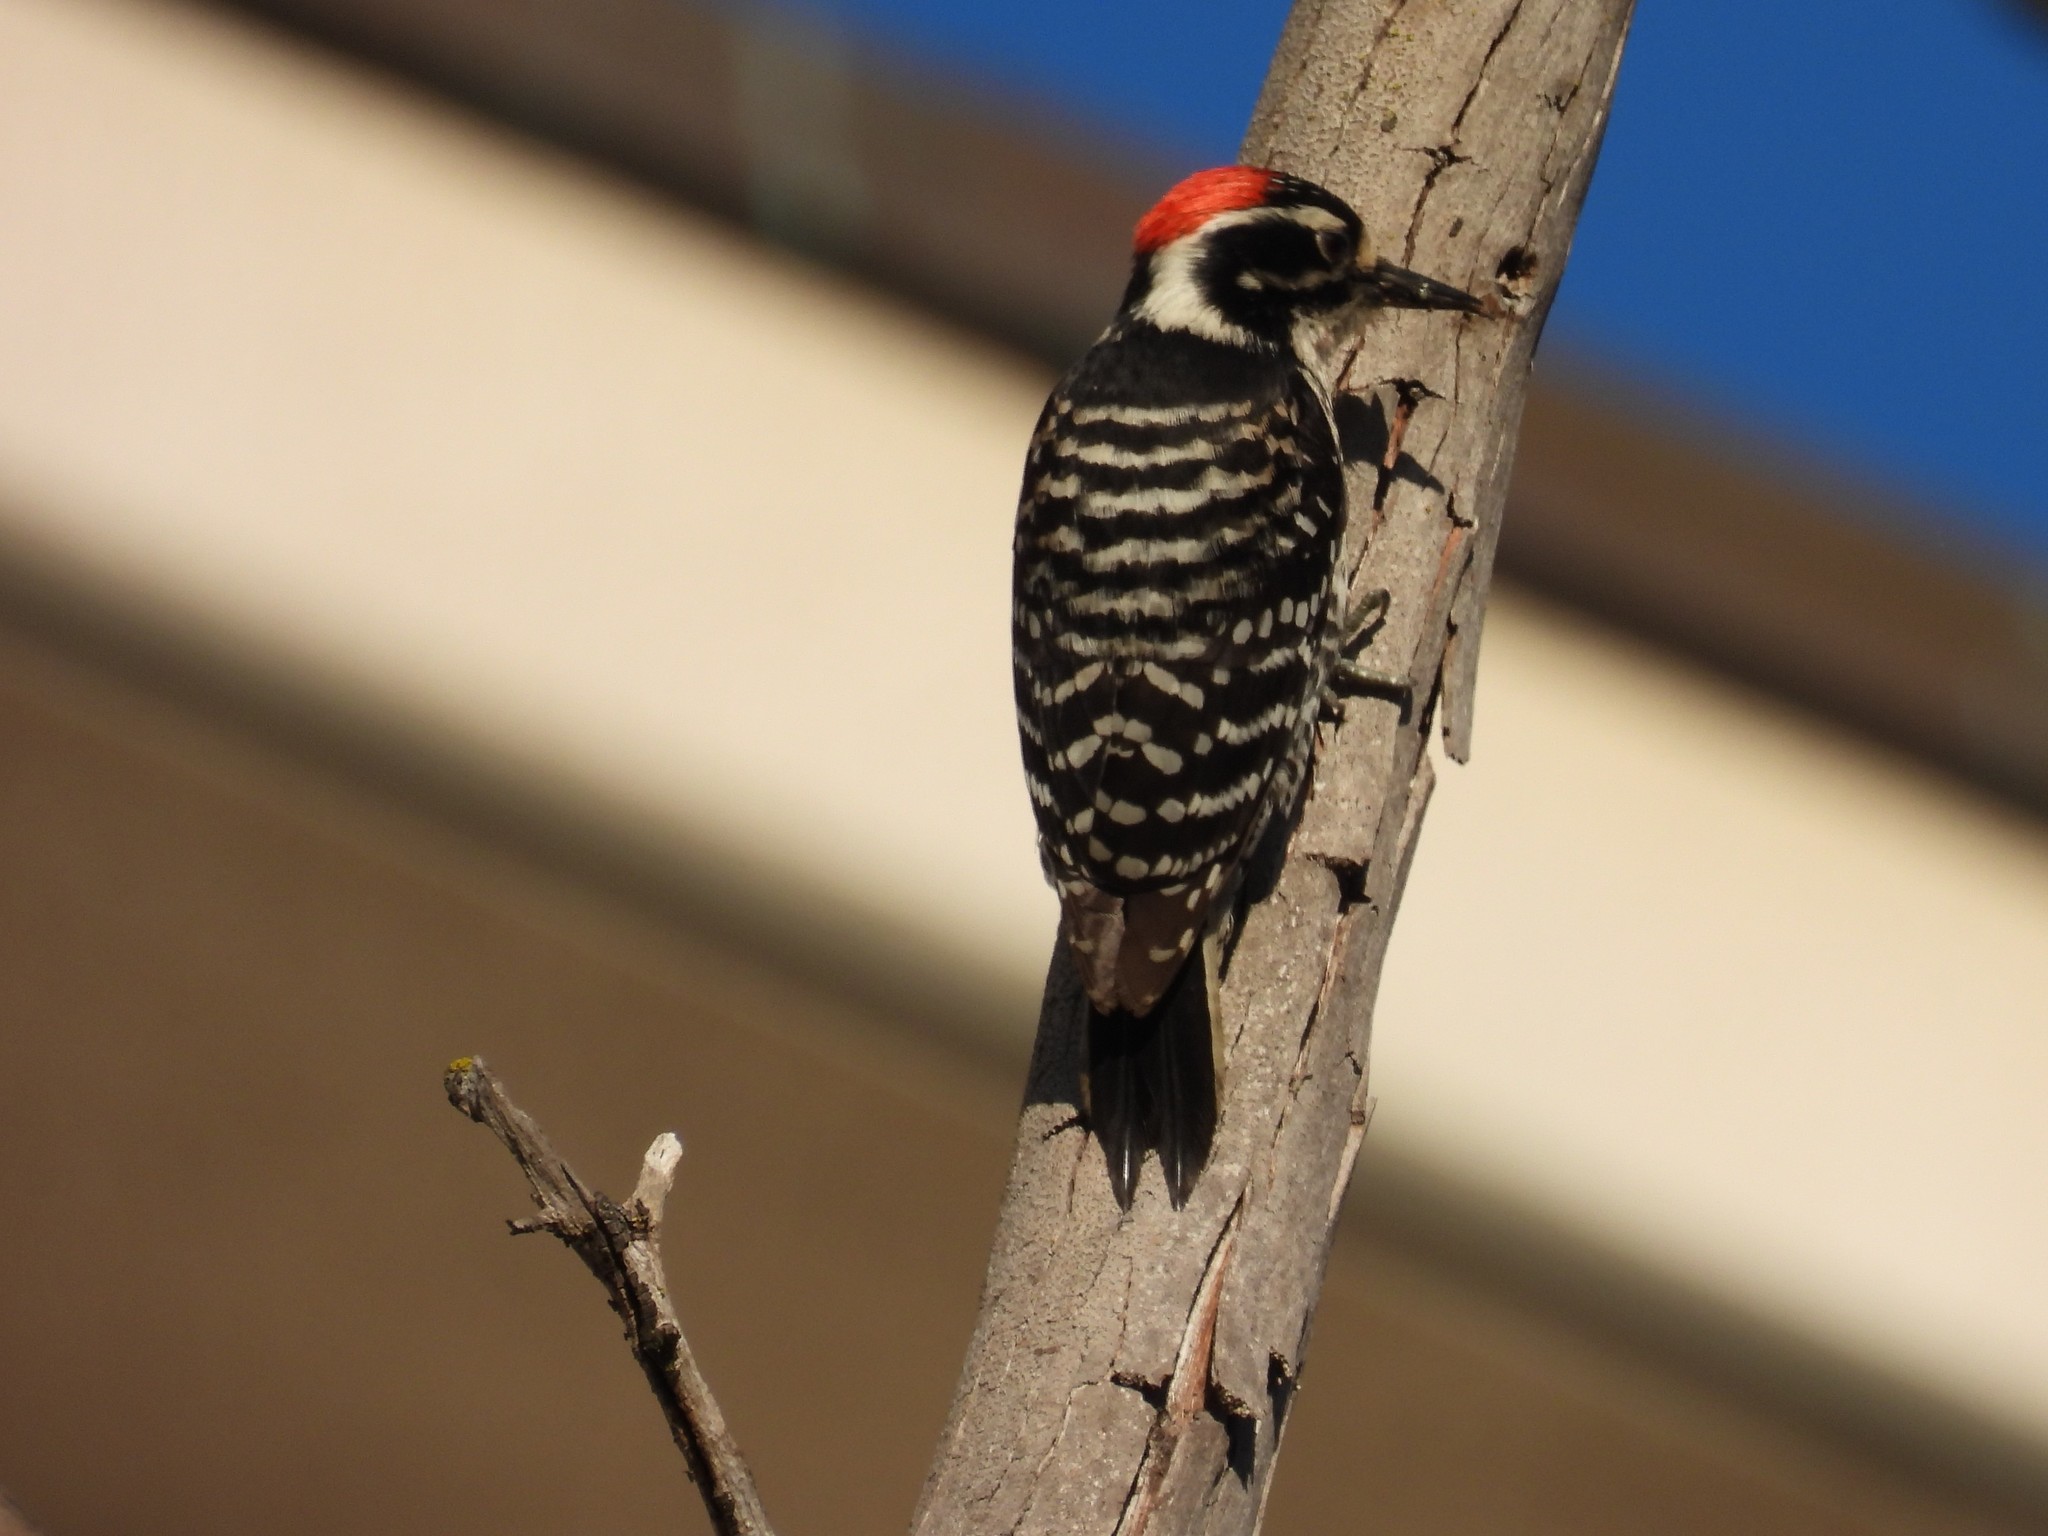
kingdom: Animalia
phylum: Chordata
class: Aves
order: Piciformes
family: Picidae
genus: Dryobates
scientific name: Dryobates nuttallii
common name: Nuttall's woodpecker
